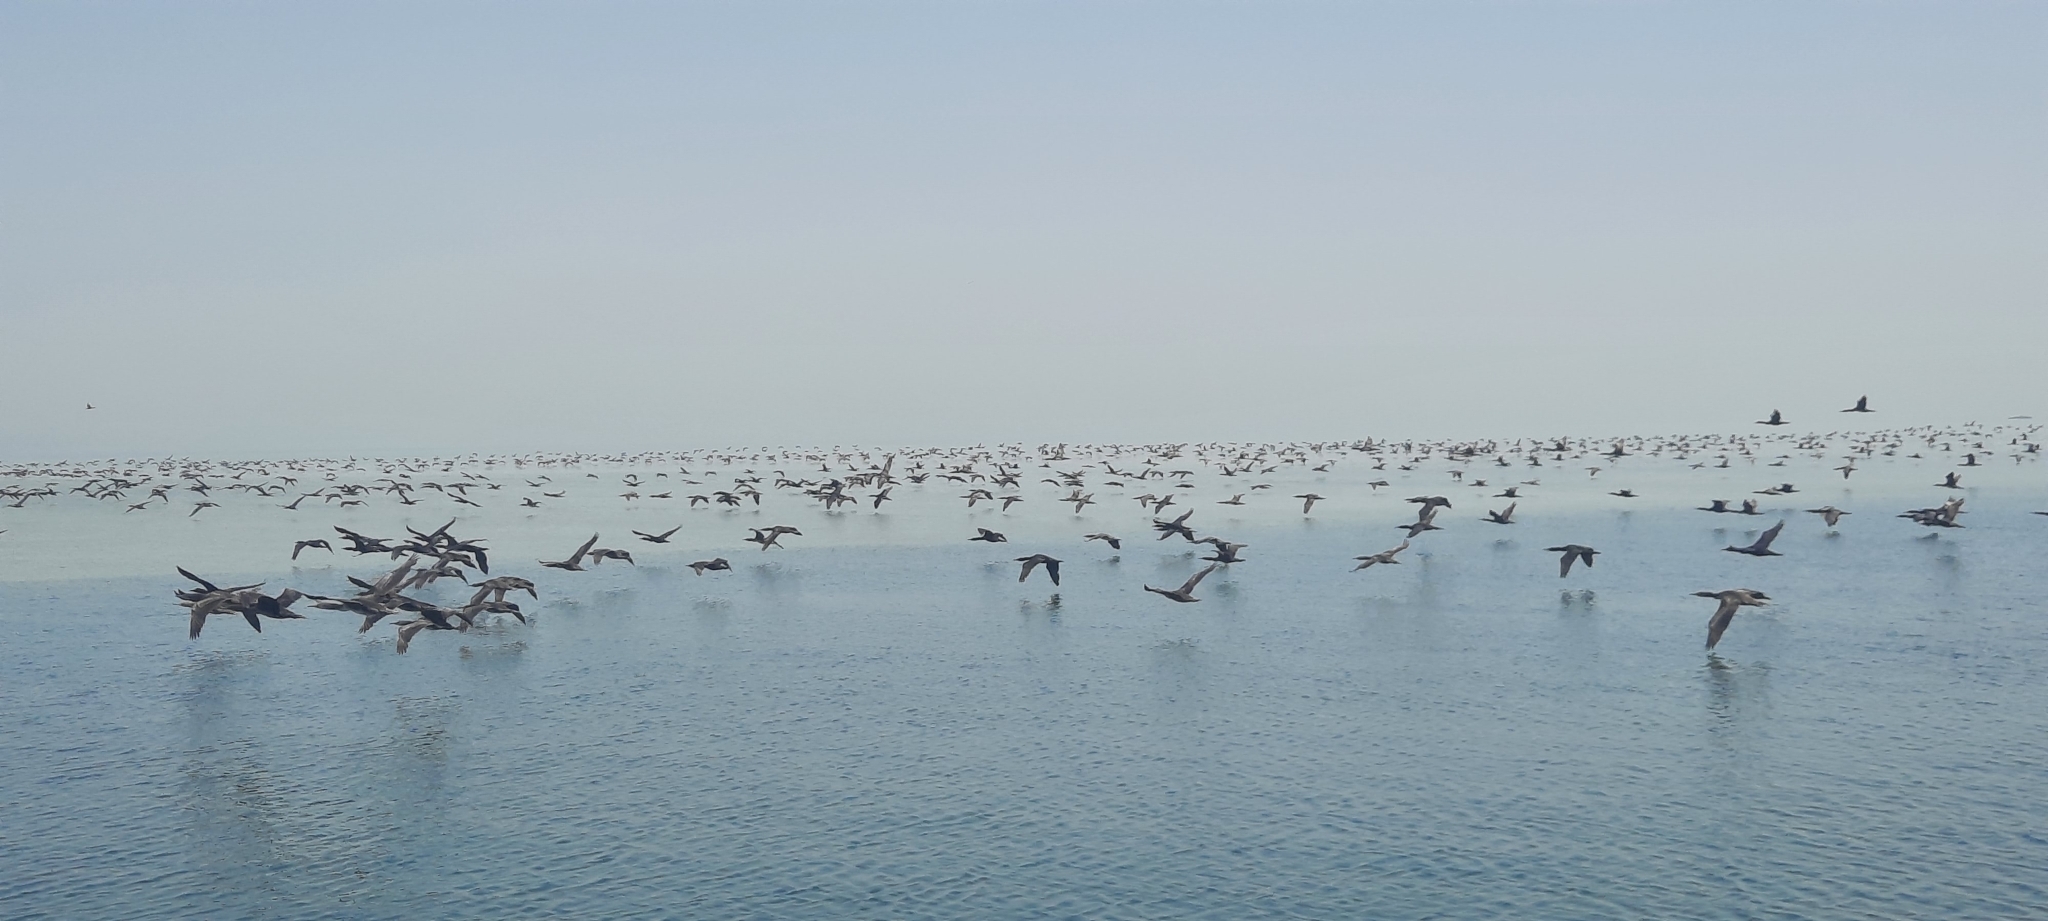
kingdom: Animalia
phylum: Chordata
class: Aves
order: Suliformes
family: Phalacrocoracidae
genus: Phalacrocorax
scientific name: Phalacrocorax nigrogularis
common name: Socotra cormorant
